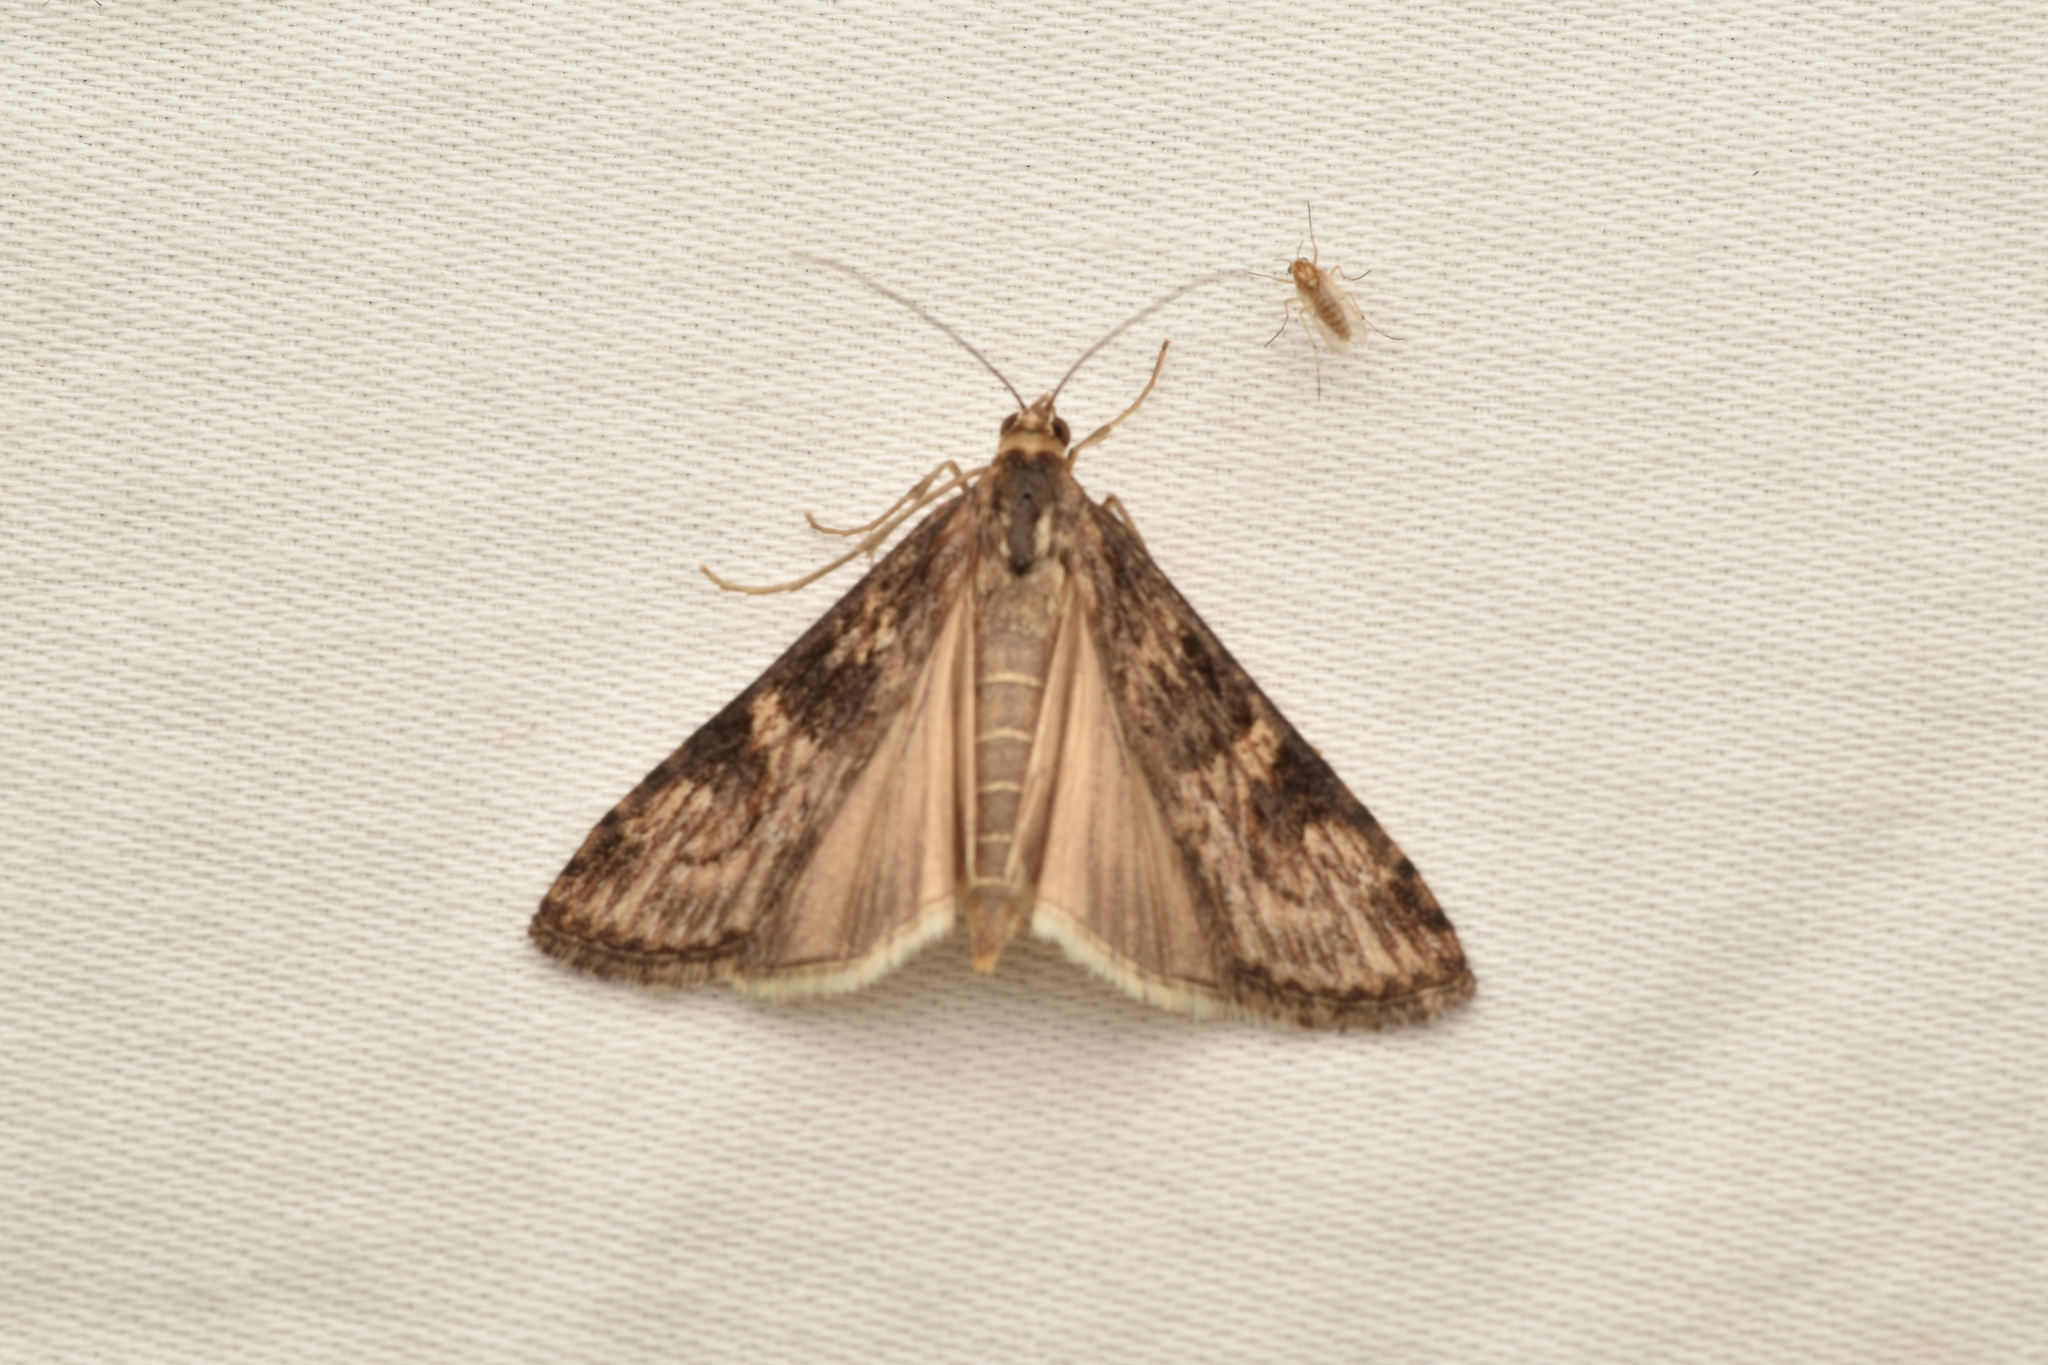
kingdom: Animalia
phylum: Arthropoda
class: Insecta
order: Lepidoptera
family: Crambidae
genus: Nomophila
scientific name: Nomophila nearctica
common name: American rush veneer
